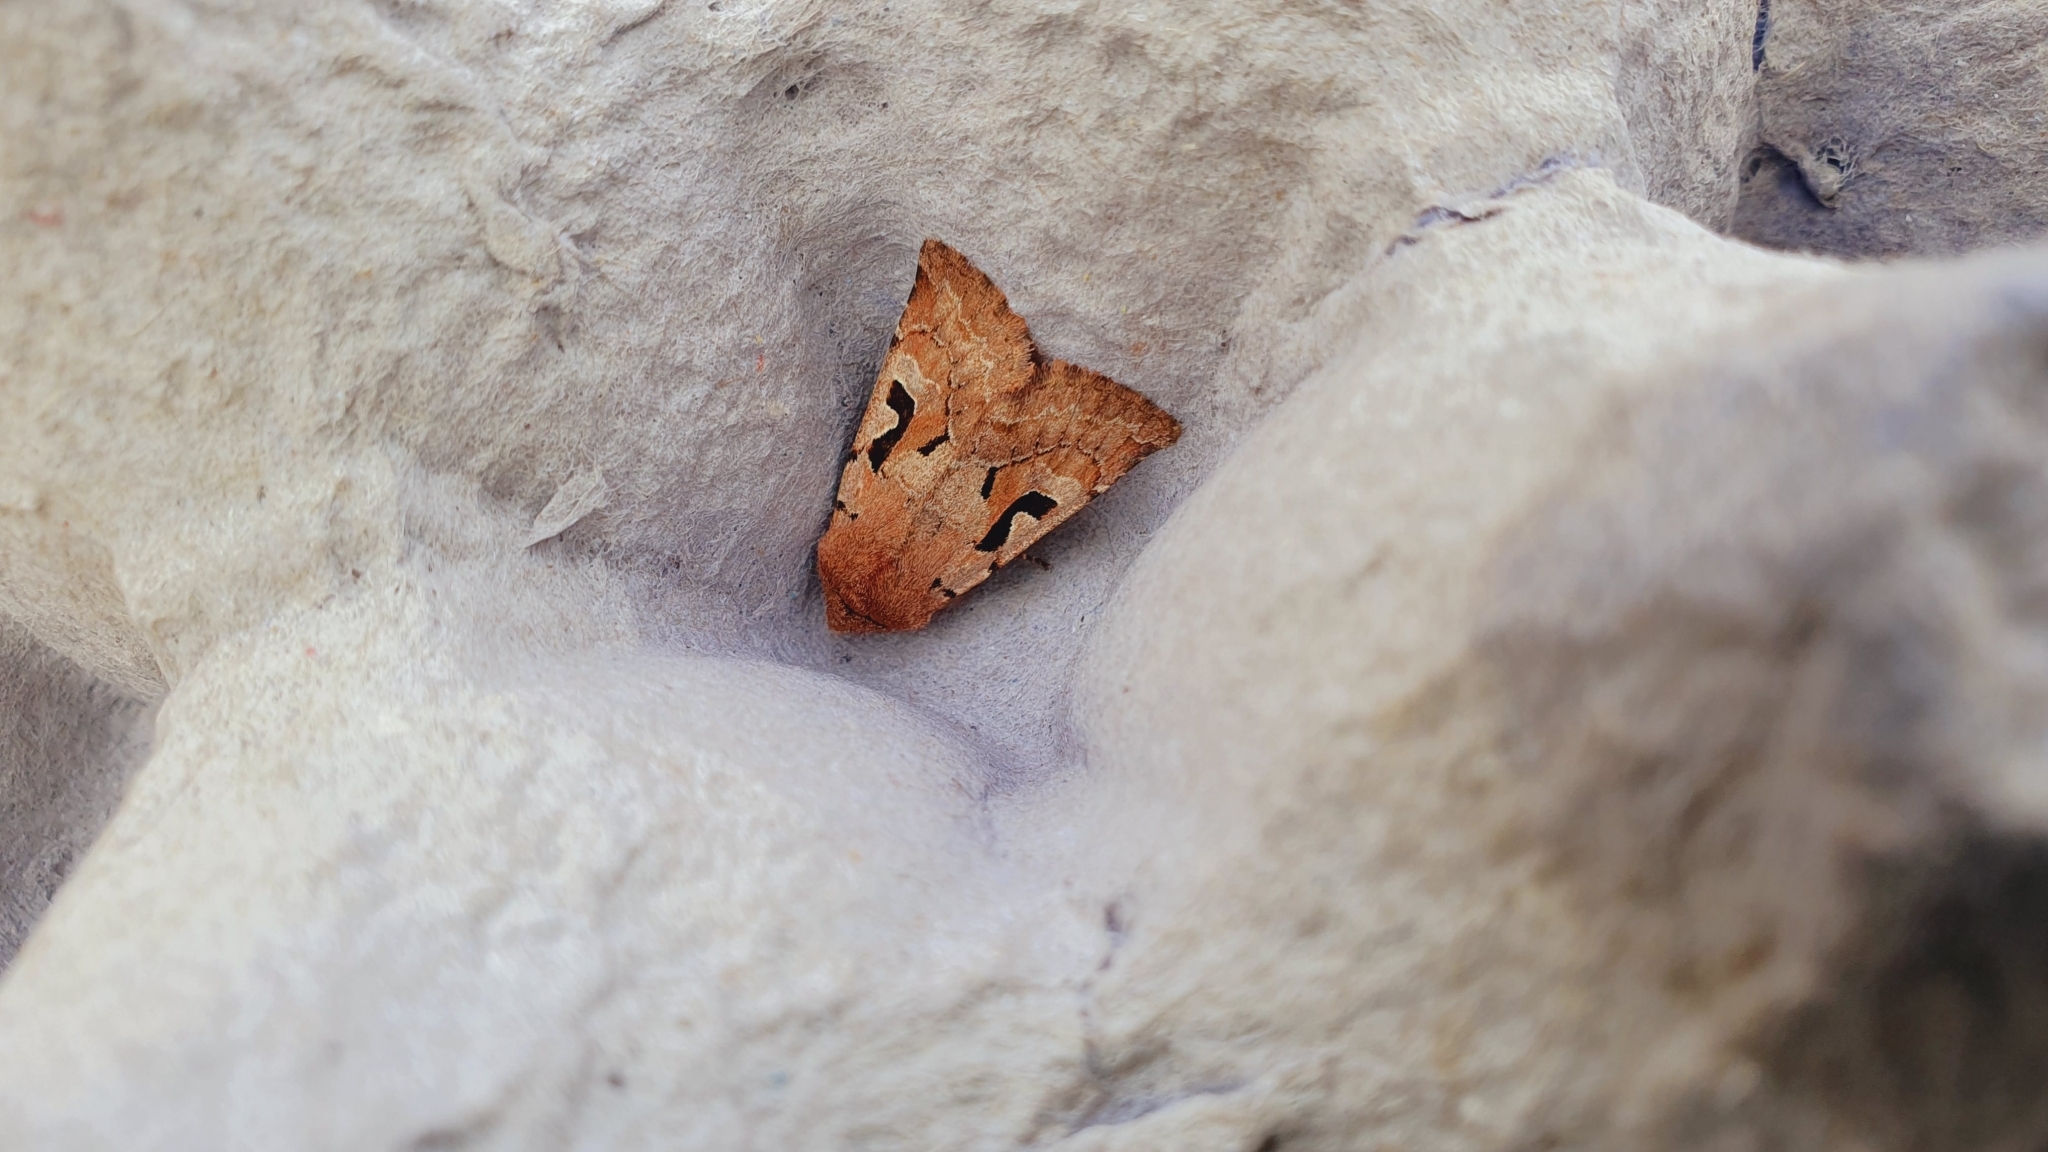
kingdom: Animalia
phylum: Arthropoda
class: Insecta
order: Lepidoptera
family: Noctuidae
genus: Orthosia
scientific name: Orthosia gothica
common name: Hebrew character
